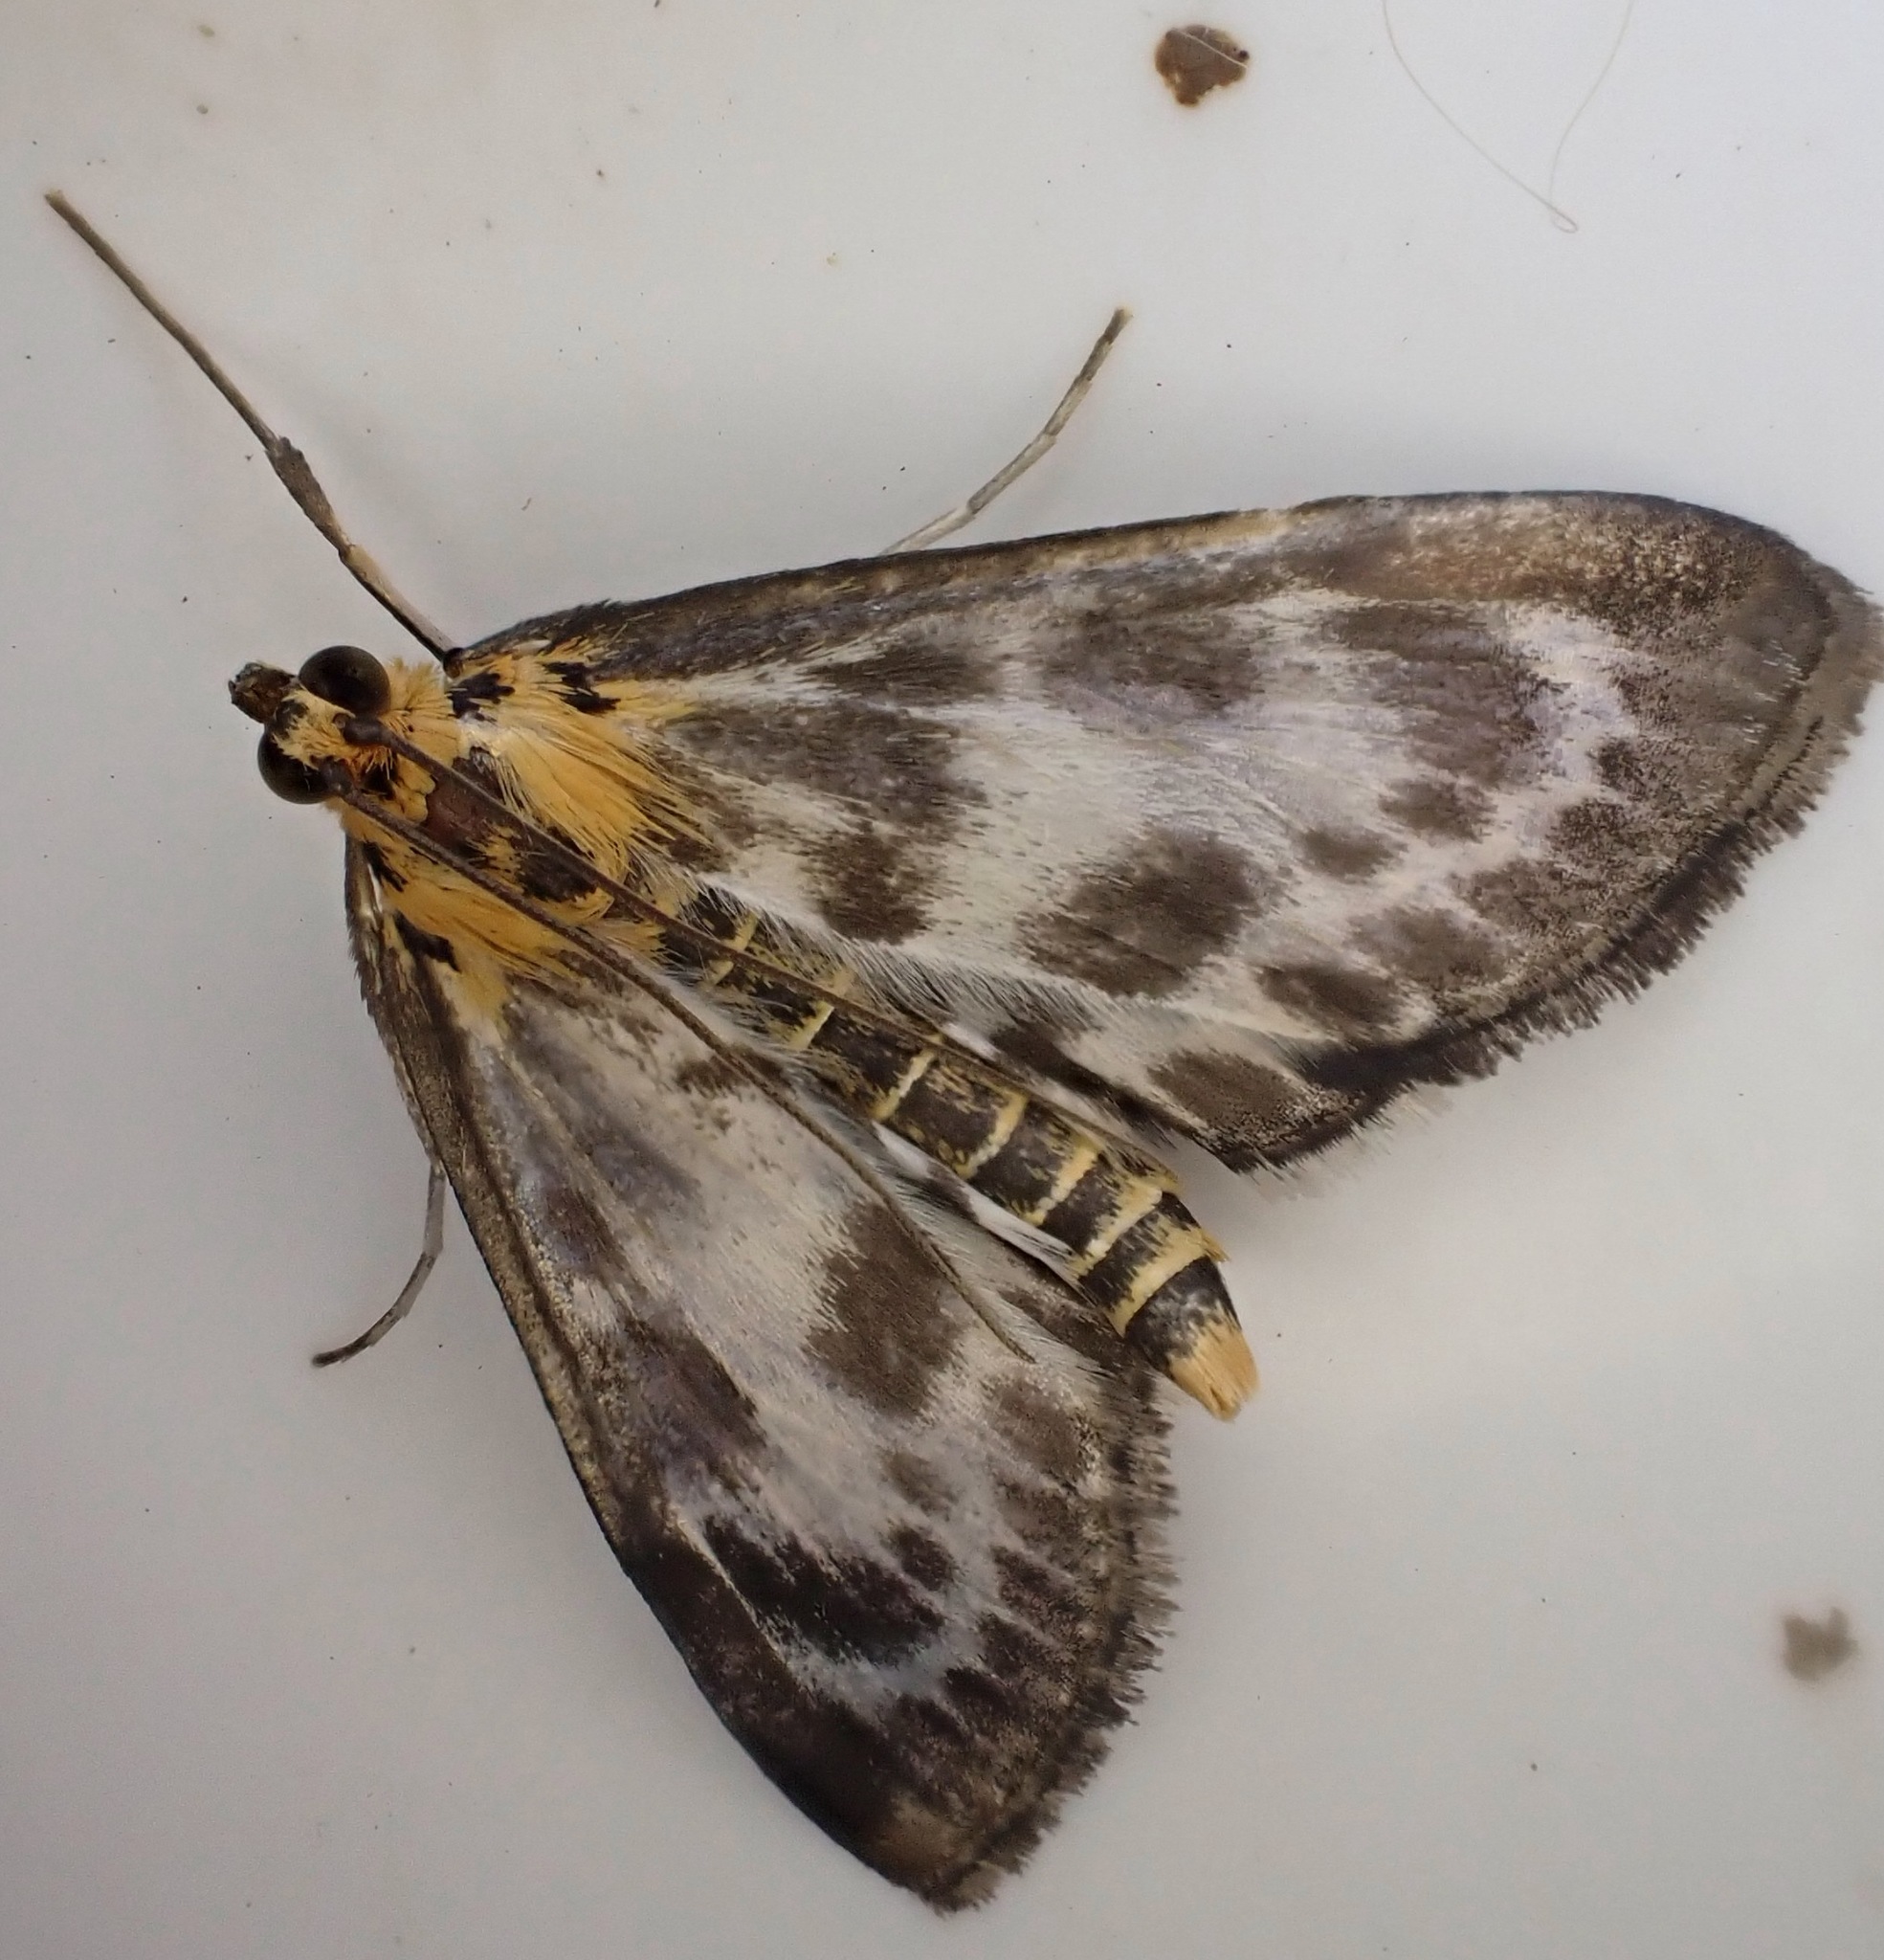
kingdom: Animalia
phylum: Arthropoda
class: Insecta
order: Lepidoptera
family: Crambidae
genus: Anania
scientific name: Anania hortulata
